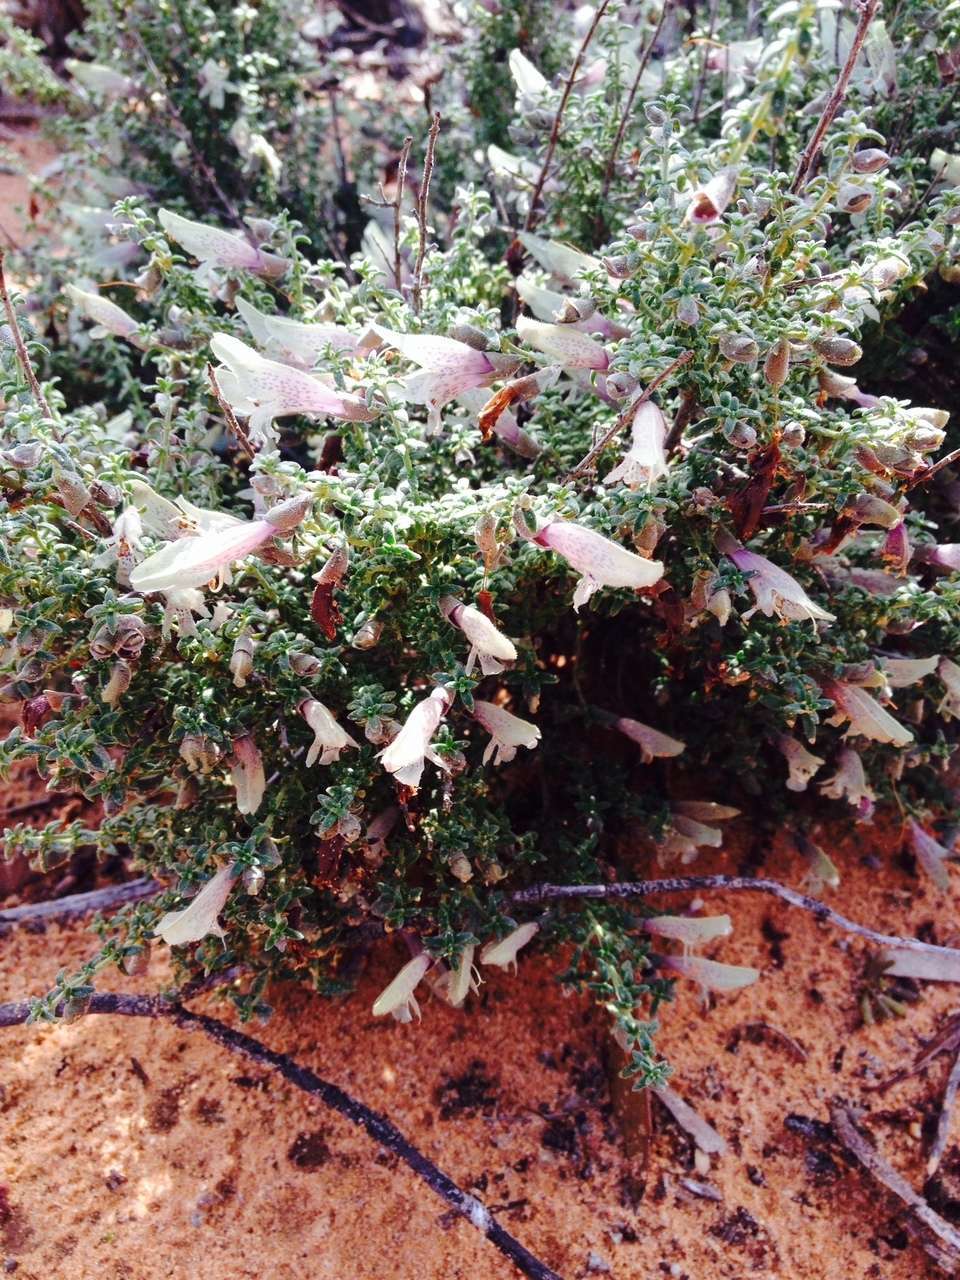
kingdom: Plantae
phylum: Tracheophyta
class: Magnoliopsida
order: Lamiales
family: Lamiaceae
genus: Prostanthera
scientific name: Prostanthera microphylla
